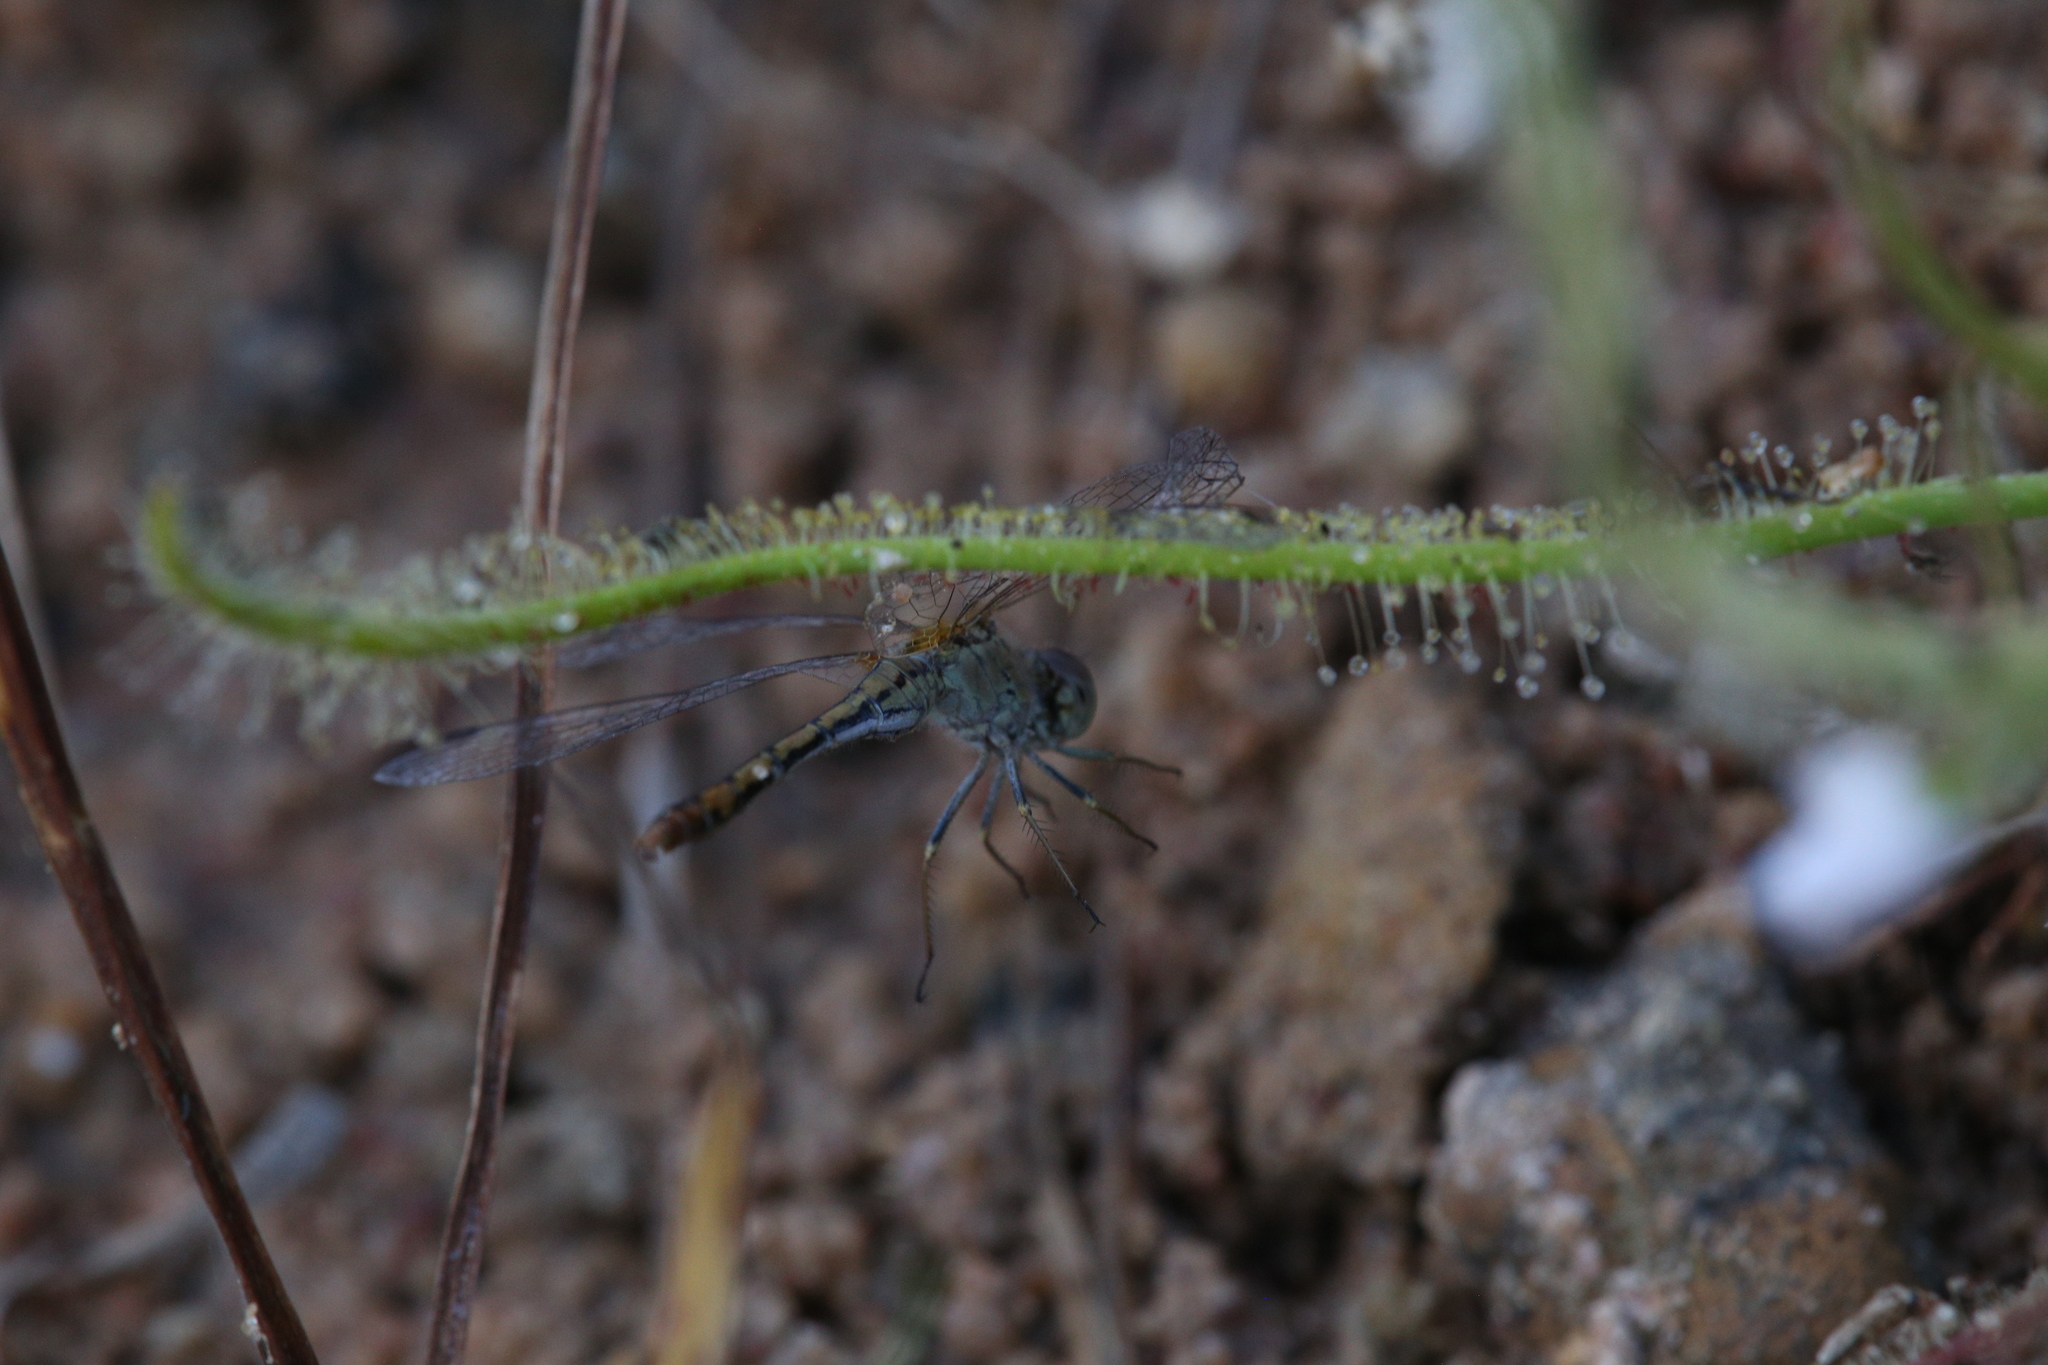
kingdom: Animalia
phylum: Arthropoda
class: Insecta
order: Odonata
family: Libellulidae
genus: Diplacodes
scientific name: Diplacodes bipunctata
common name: Red percher dragonfly
